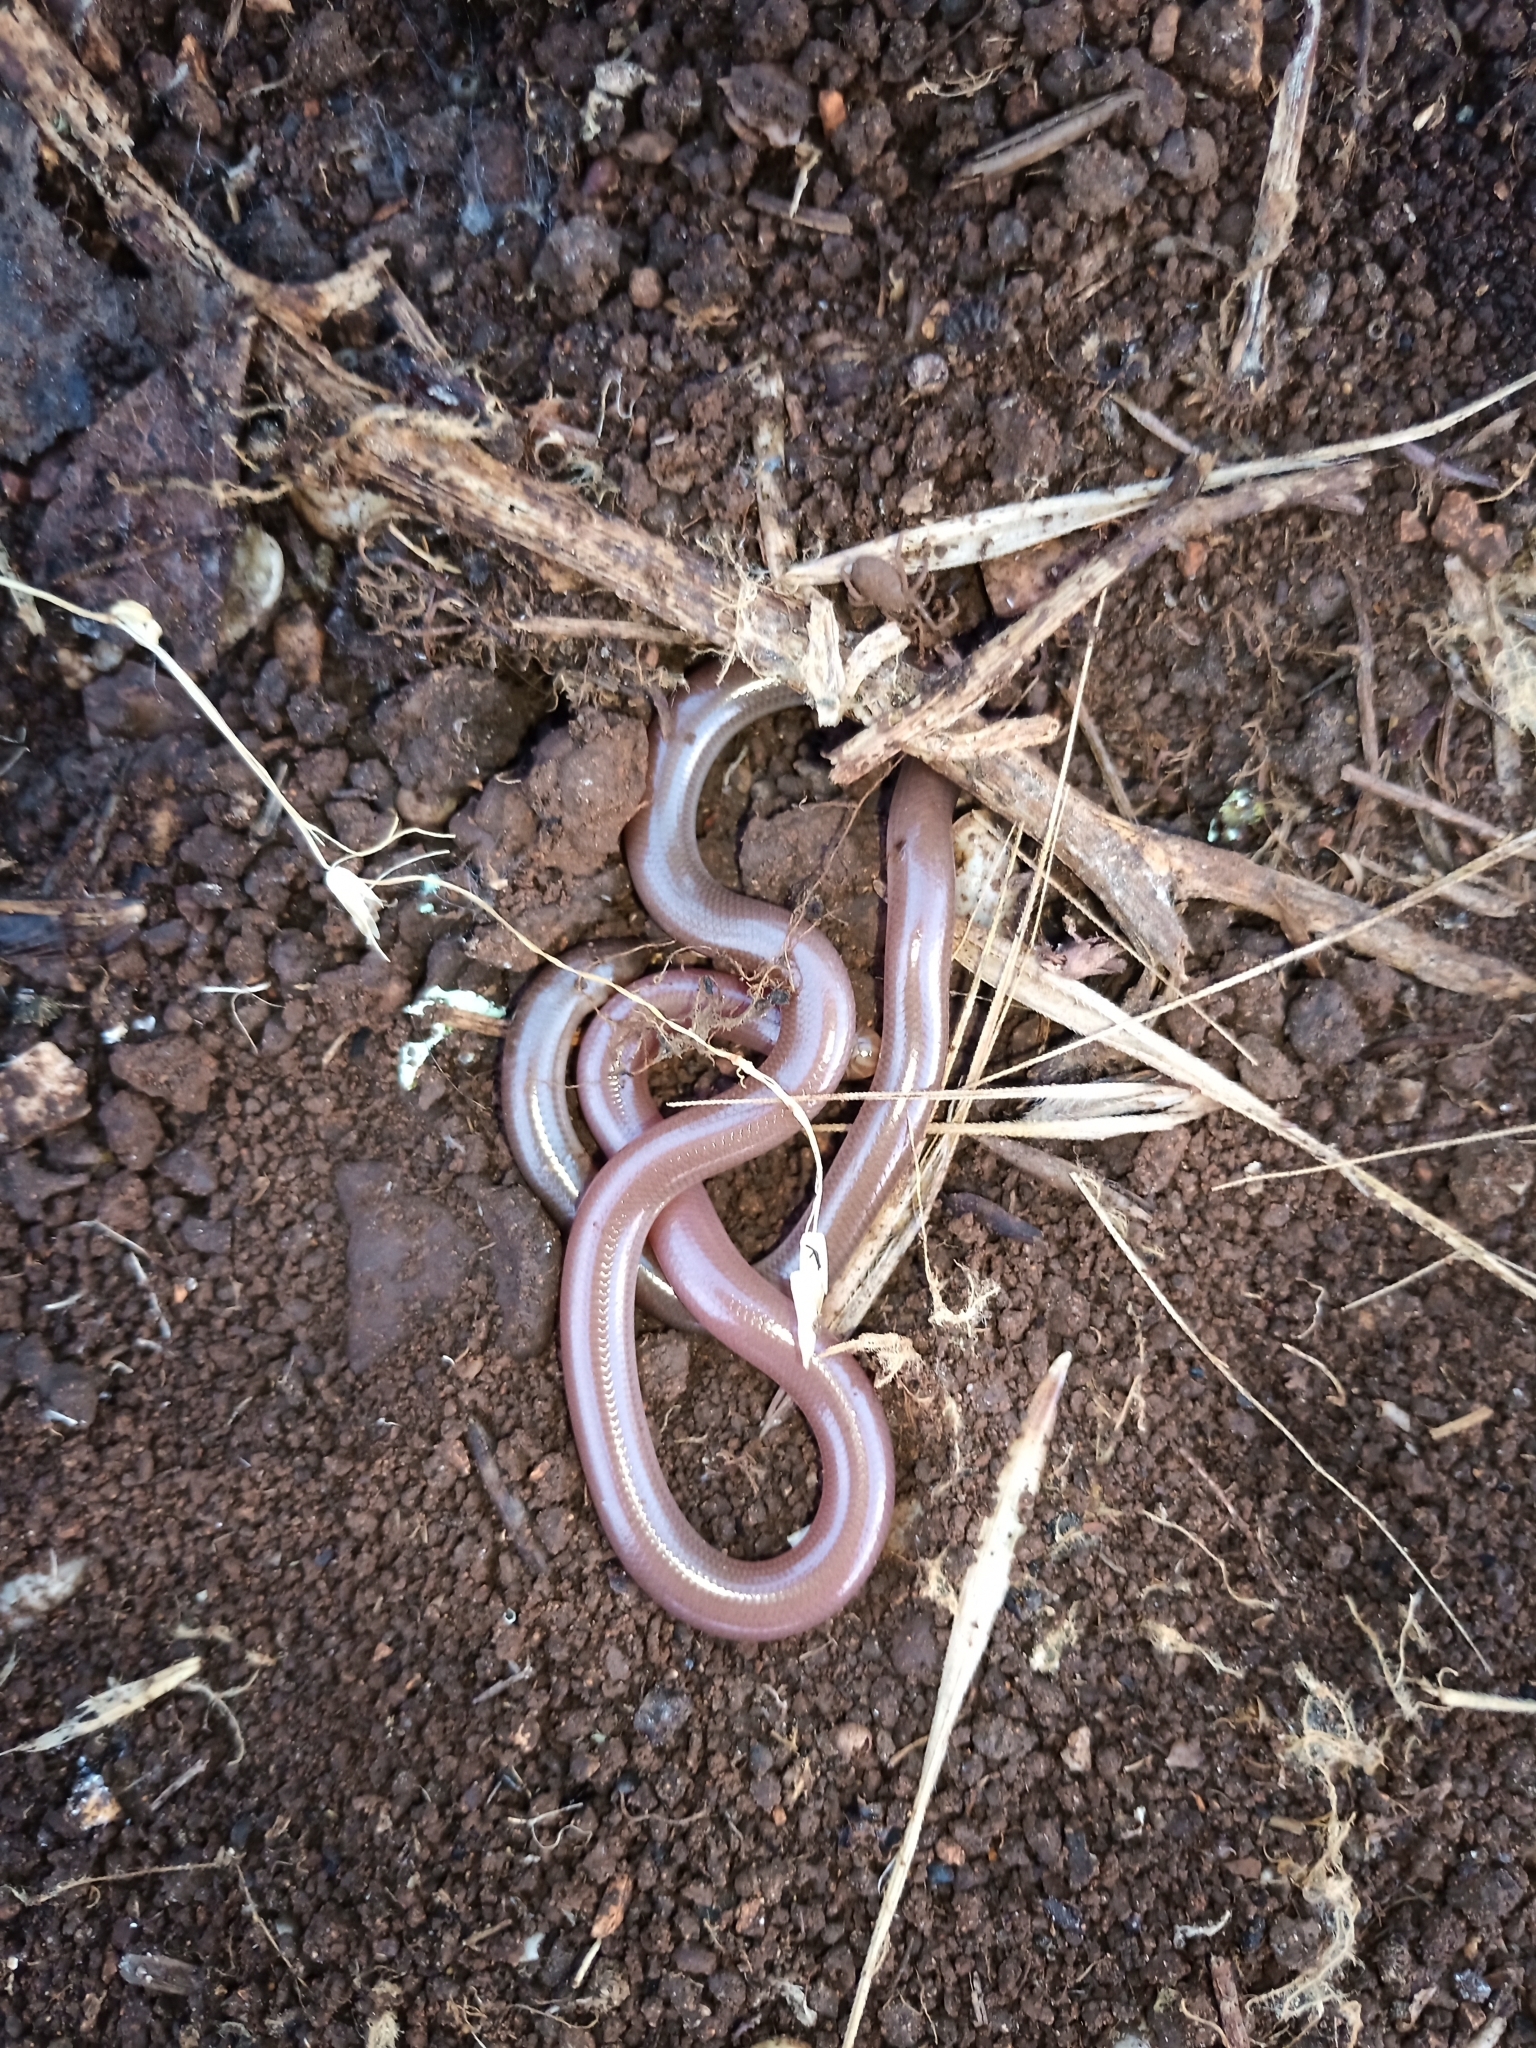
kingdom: Animalia
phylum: Chordata
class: Squamata
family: Typhlopidae
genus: Xerotyphlops
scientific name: Xerotyphlops vermicularis
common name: Eurasian blind snake
